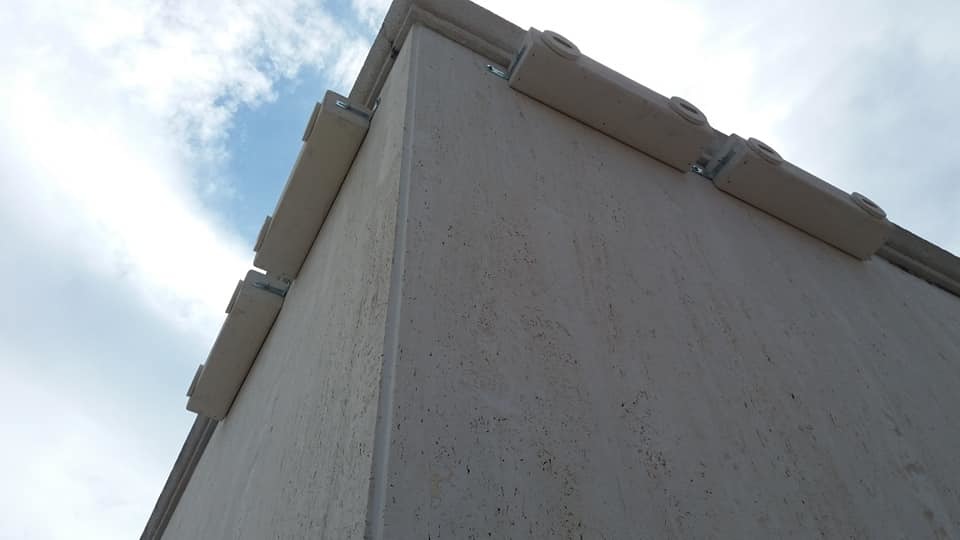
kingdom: Animalia
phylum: Chordata
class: Aves
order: Apodiformes
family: Apodidae
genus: Apus
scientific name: Apus apus
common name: Common swift
